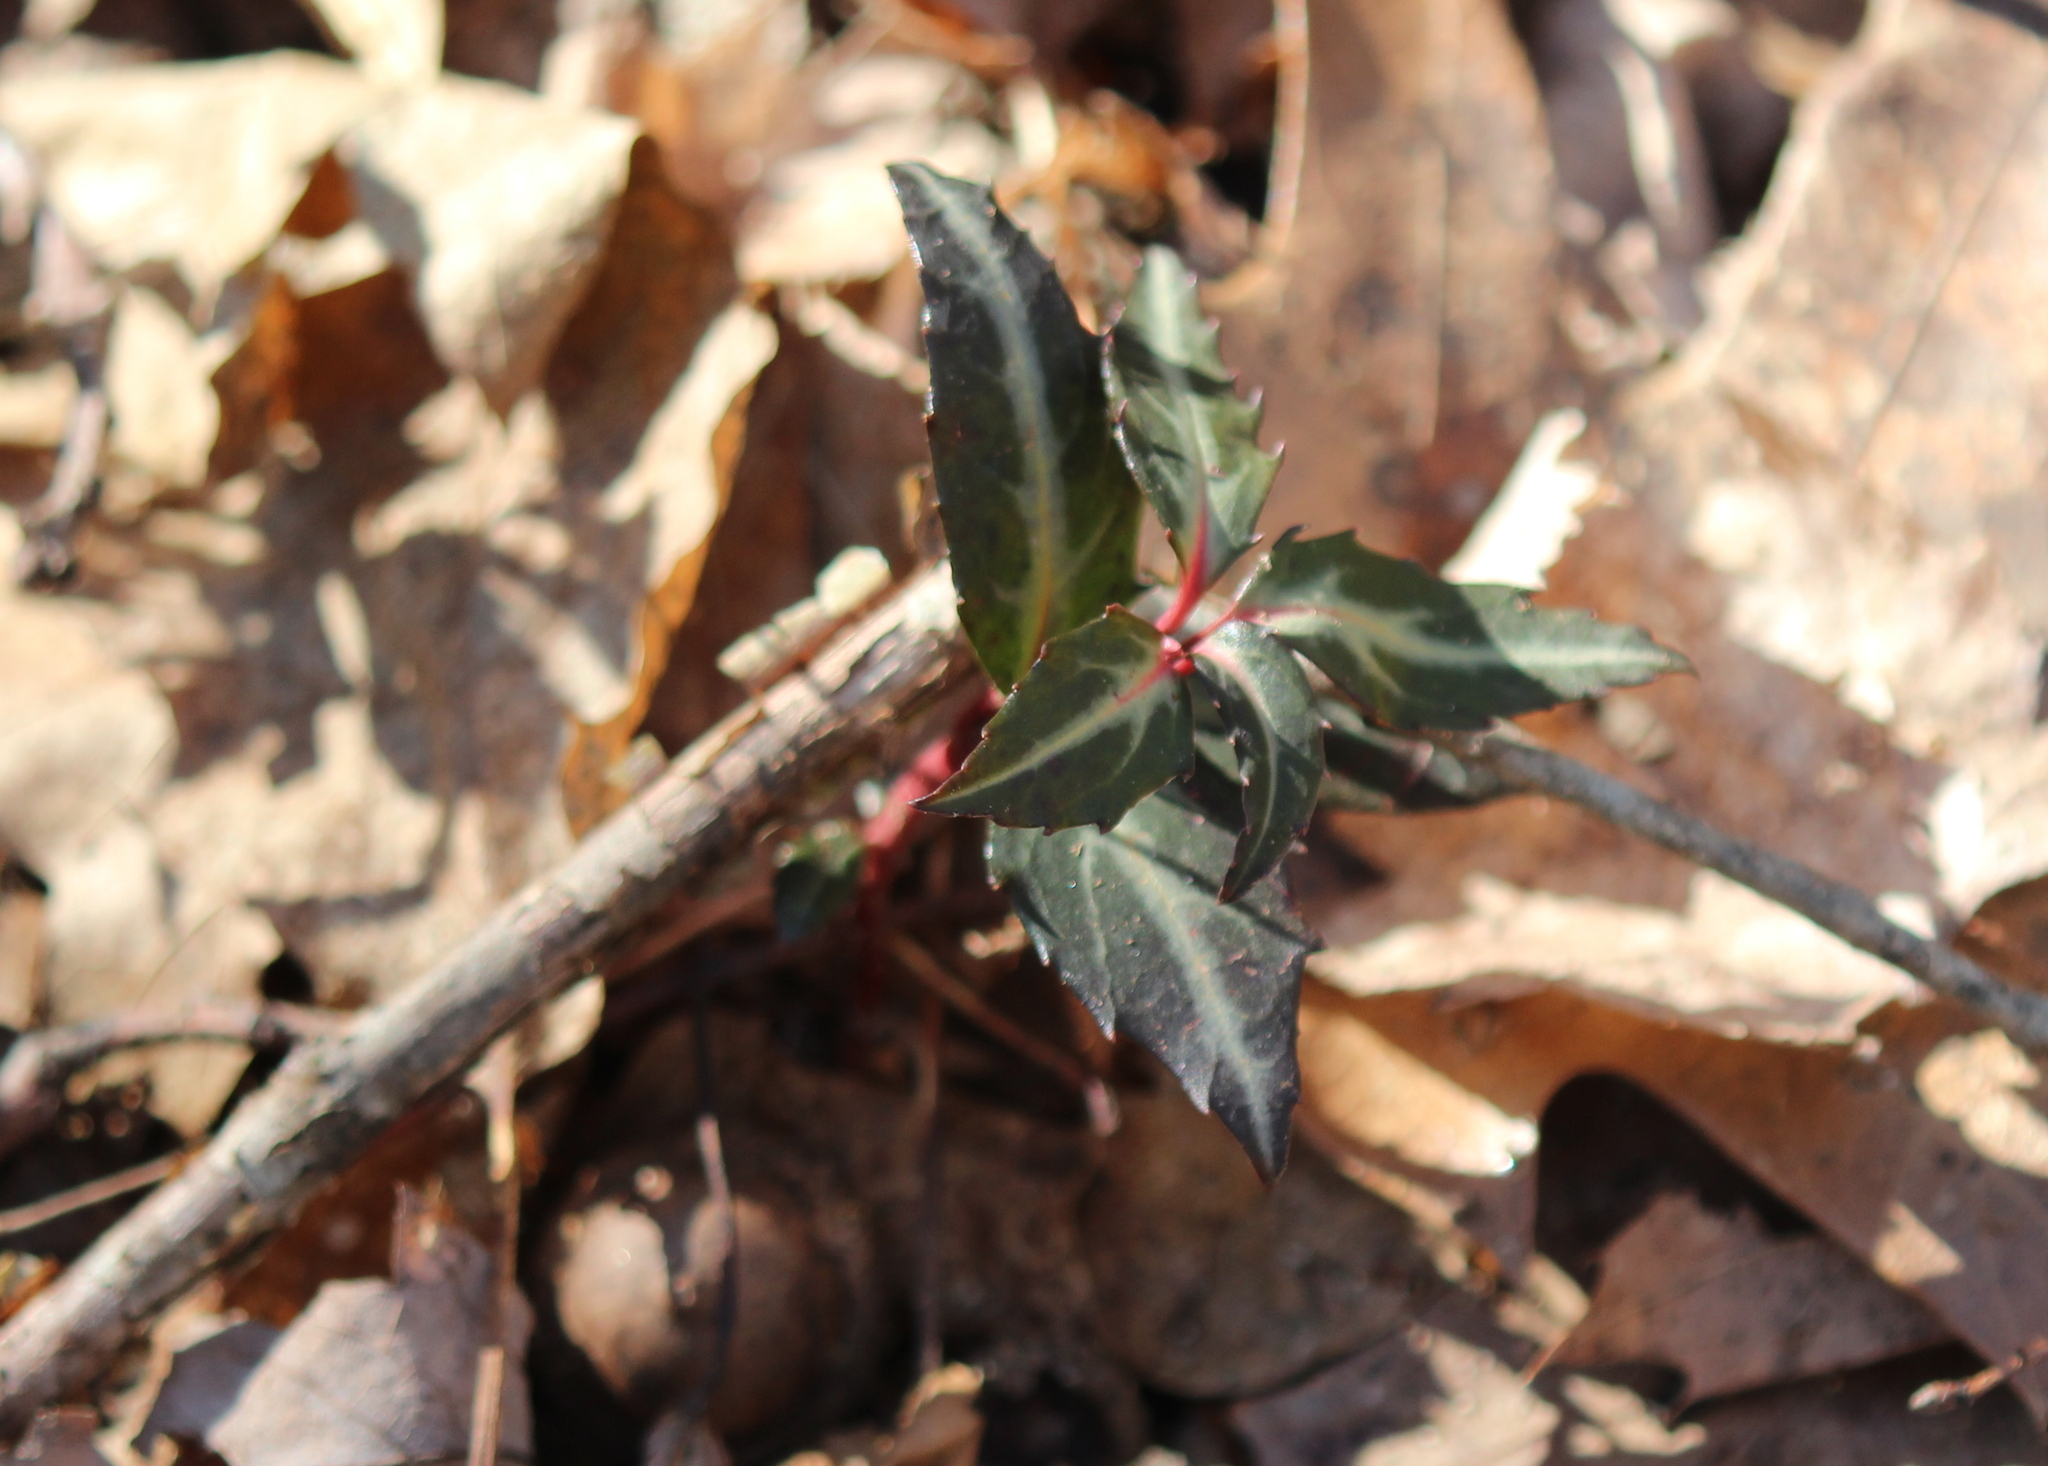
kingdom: Plantae
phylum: Tracheophyta
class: Magnoliopsida
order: Ericales
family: Ericaceae
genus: Chimaphila
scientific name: Chimaphila maculata
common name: Spotted pipsissewa
